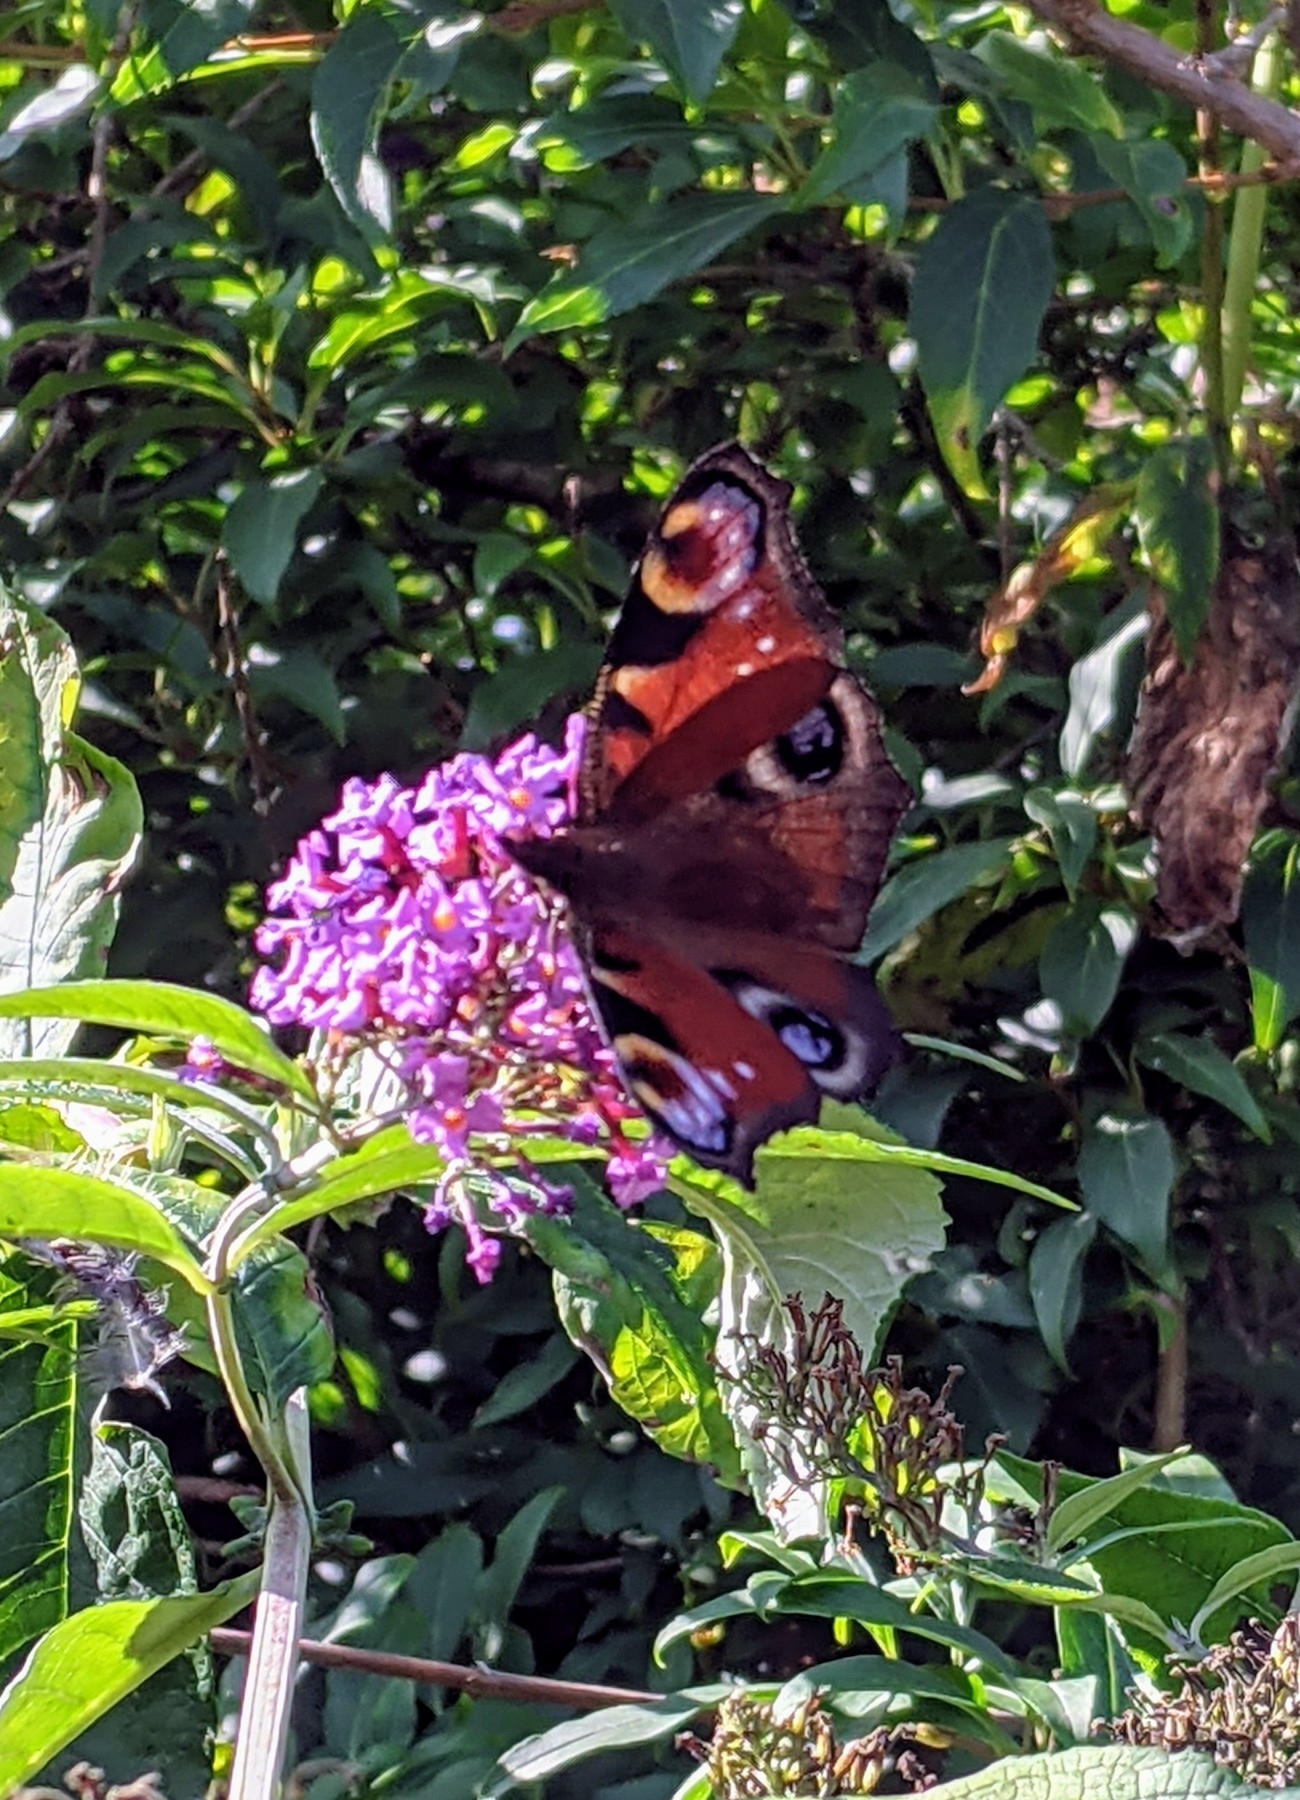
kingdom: Animalia
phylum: Arthropoda
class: Insecta
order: Lepidoptera
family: Nymphalidae
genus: Aglais
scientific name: Aglais io
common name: Peacock
